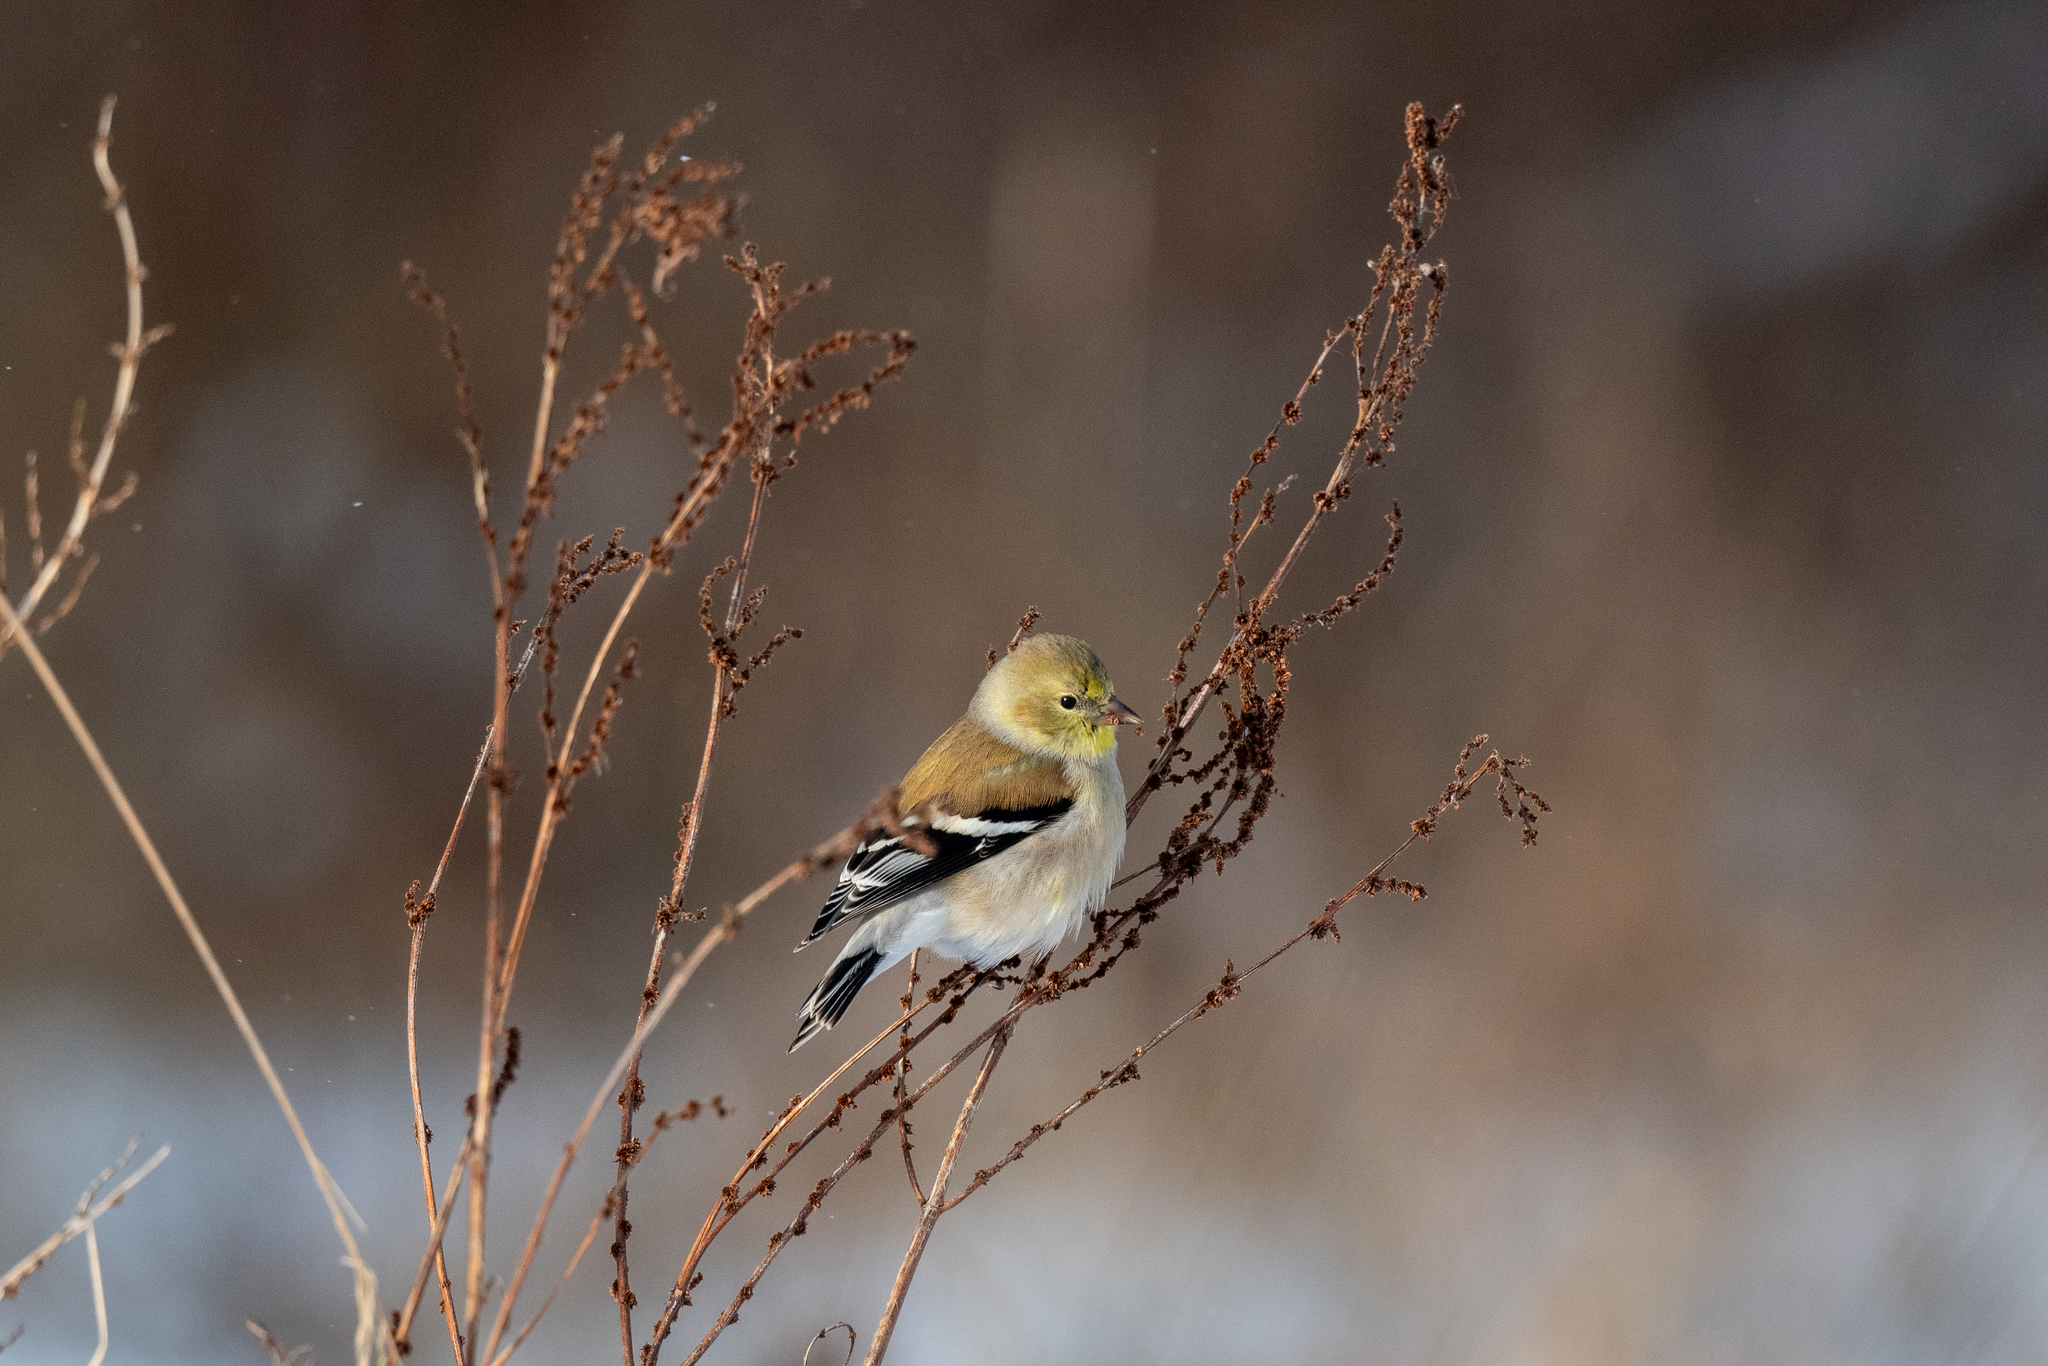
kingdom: Animalia
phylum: Chordata
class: Aves
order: Passeriformes
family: Fringillidae
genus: Spinus
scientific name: Spinus tristis
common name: American goldfinch
